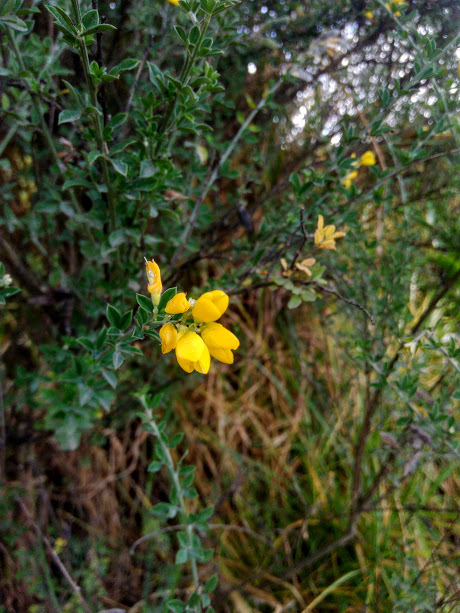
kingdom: Plantae
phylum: Tracheophyta
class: Magnoliopsida
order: Fabales
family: Fabaceae
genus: Genista
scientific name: Genista monspessulana
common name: Montpellier broom
